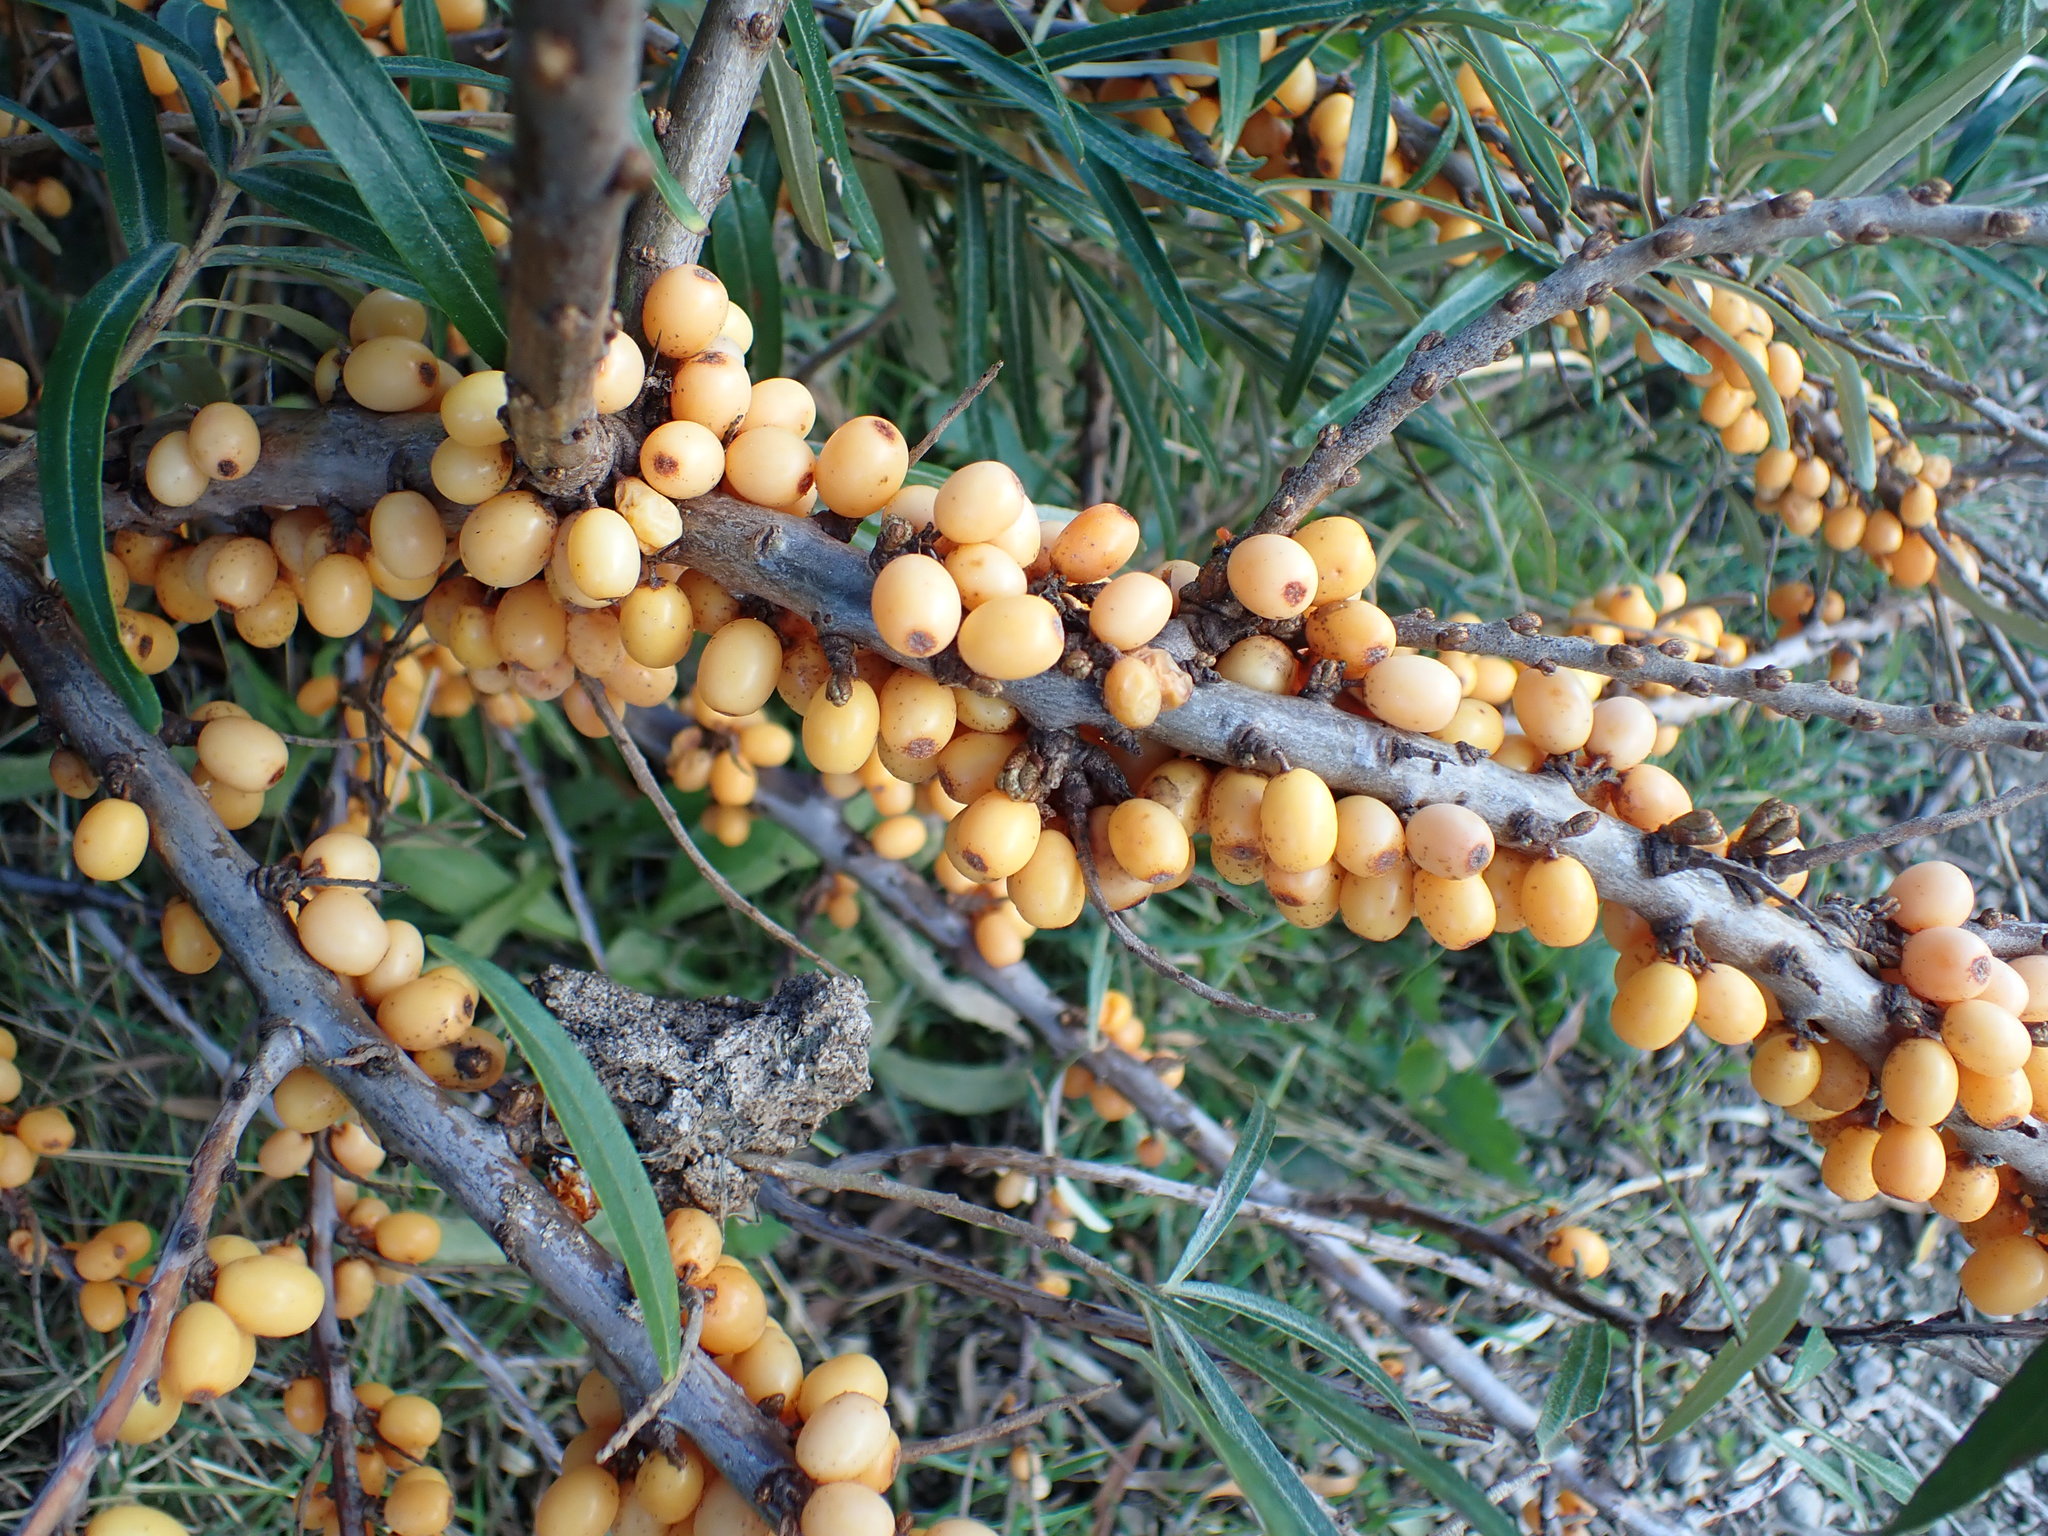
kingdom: Plantae
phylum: Tracheophyta
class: Magnoliopsida
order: Rosales
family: Elaeagnaceae
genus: Hippophae
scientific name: Hippophae rhamnoides
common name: Sea-buckthorn
